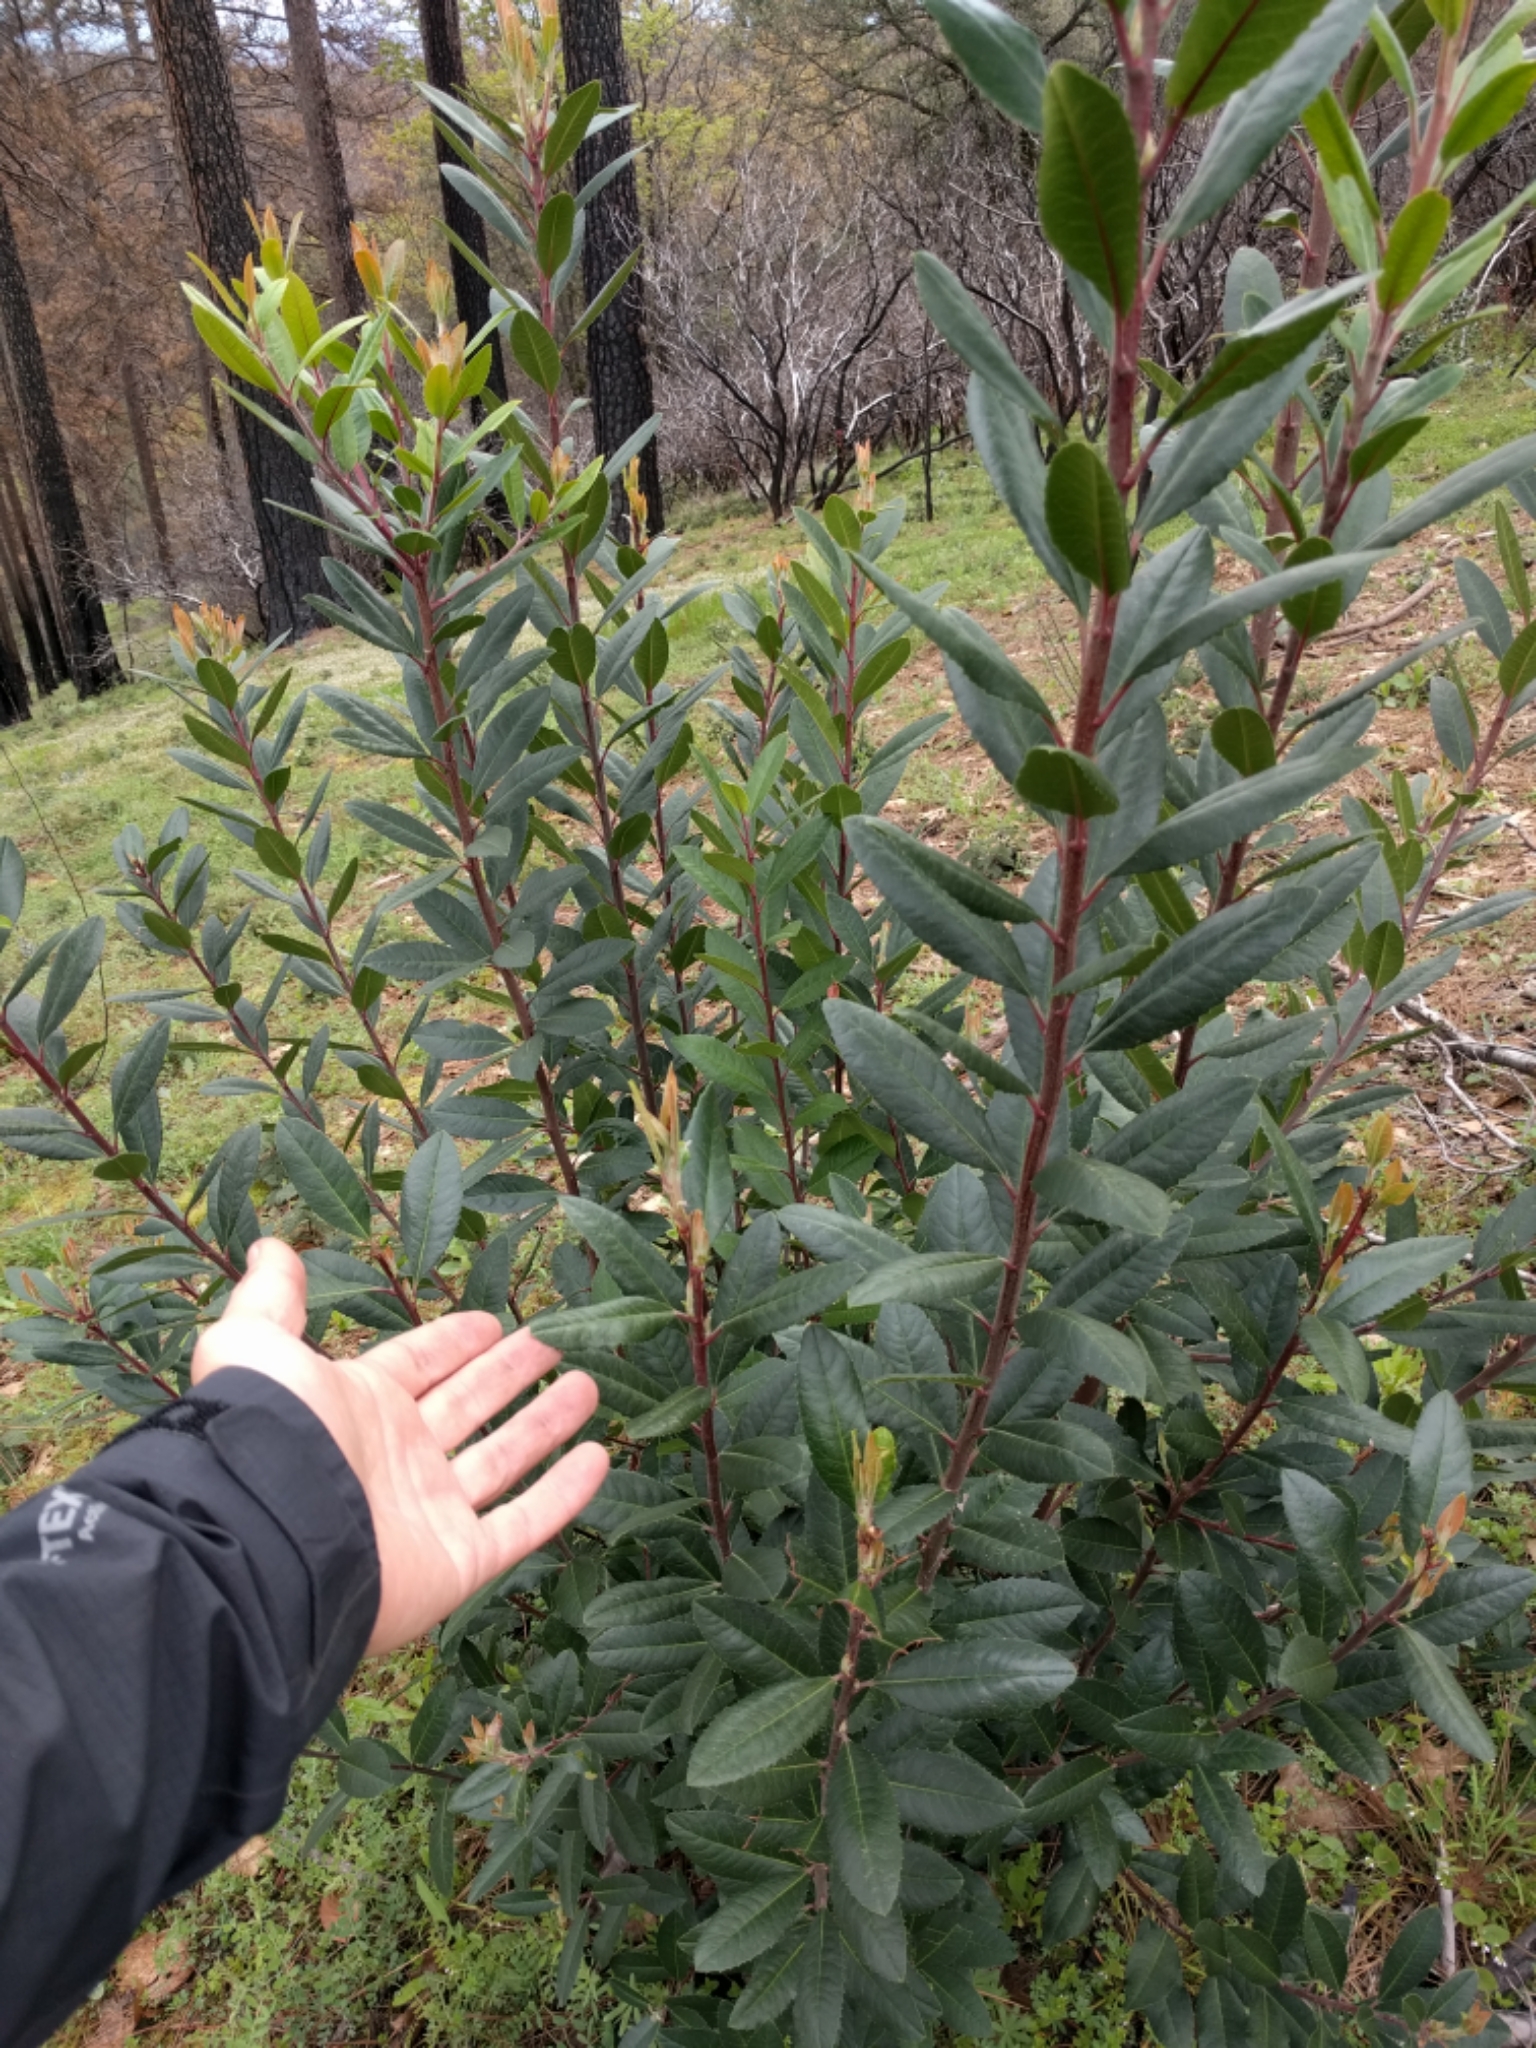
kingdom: Plantae
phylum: Tracheophyta
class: Magnoliopsida
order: Rosales
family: Rosaceae
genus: Heteromeles
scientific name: Heteromeles arbutifolia
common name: California-holly
